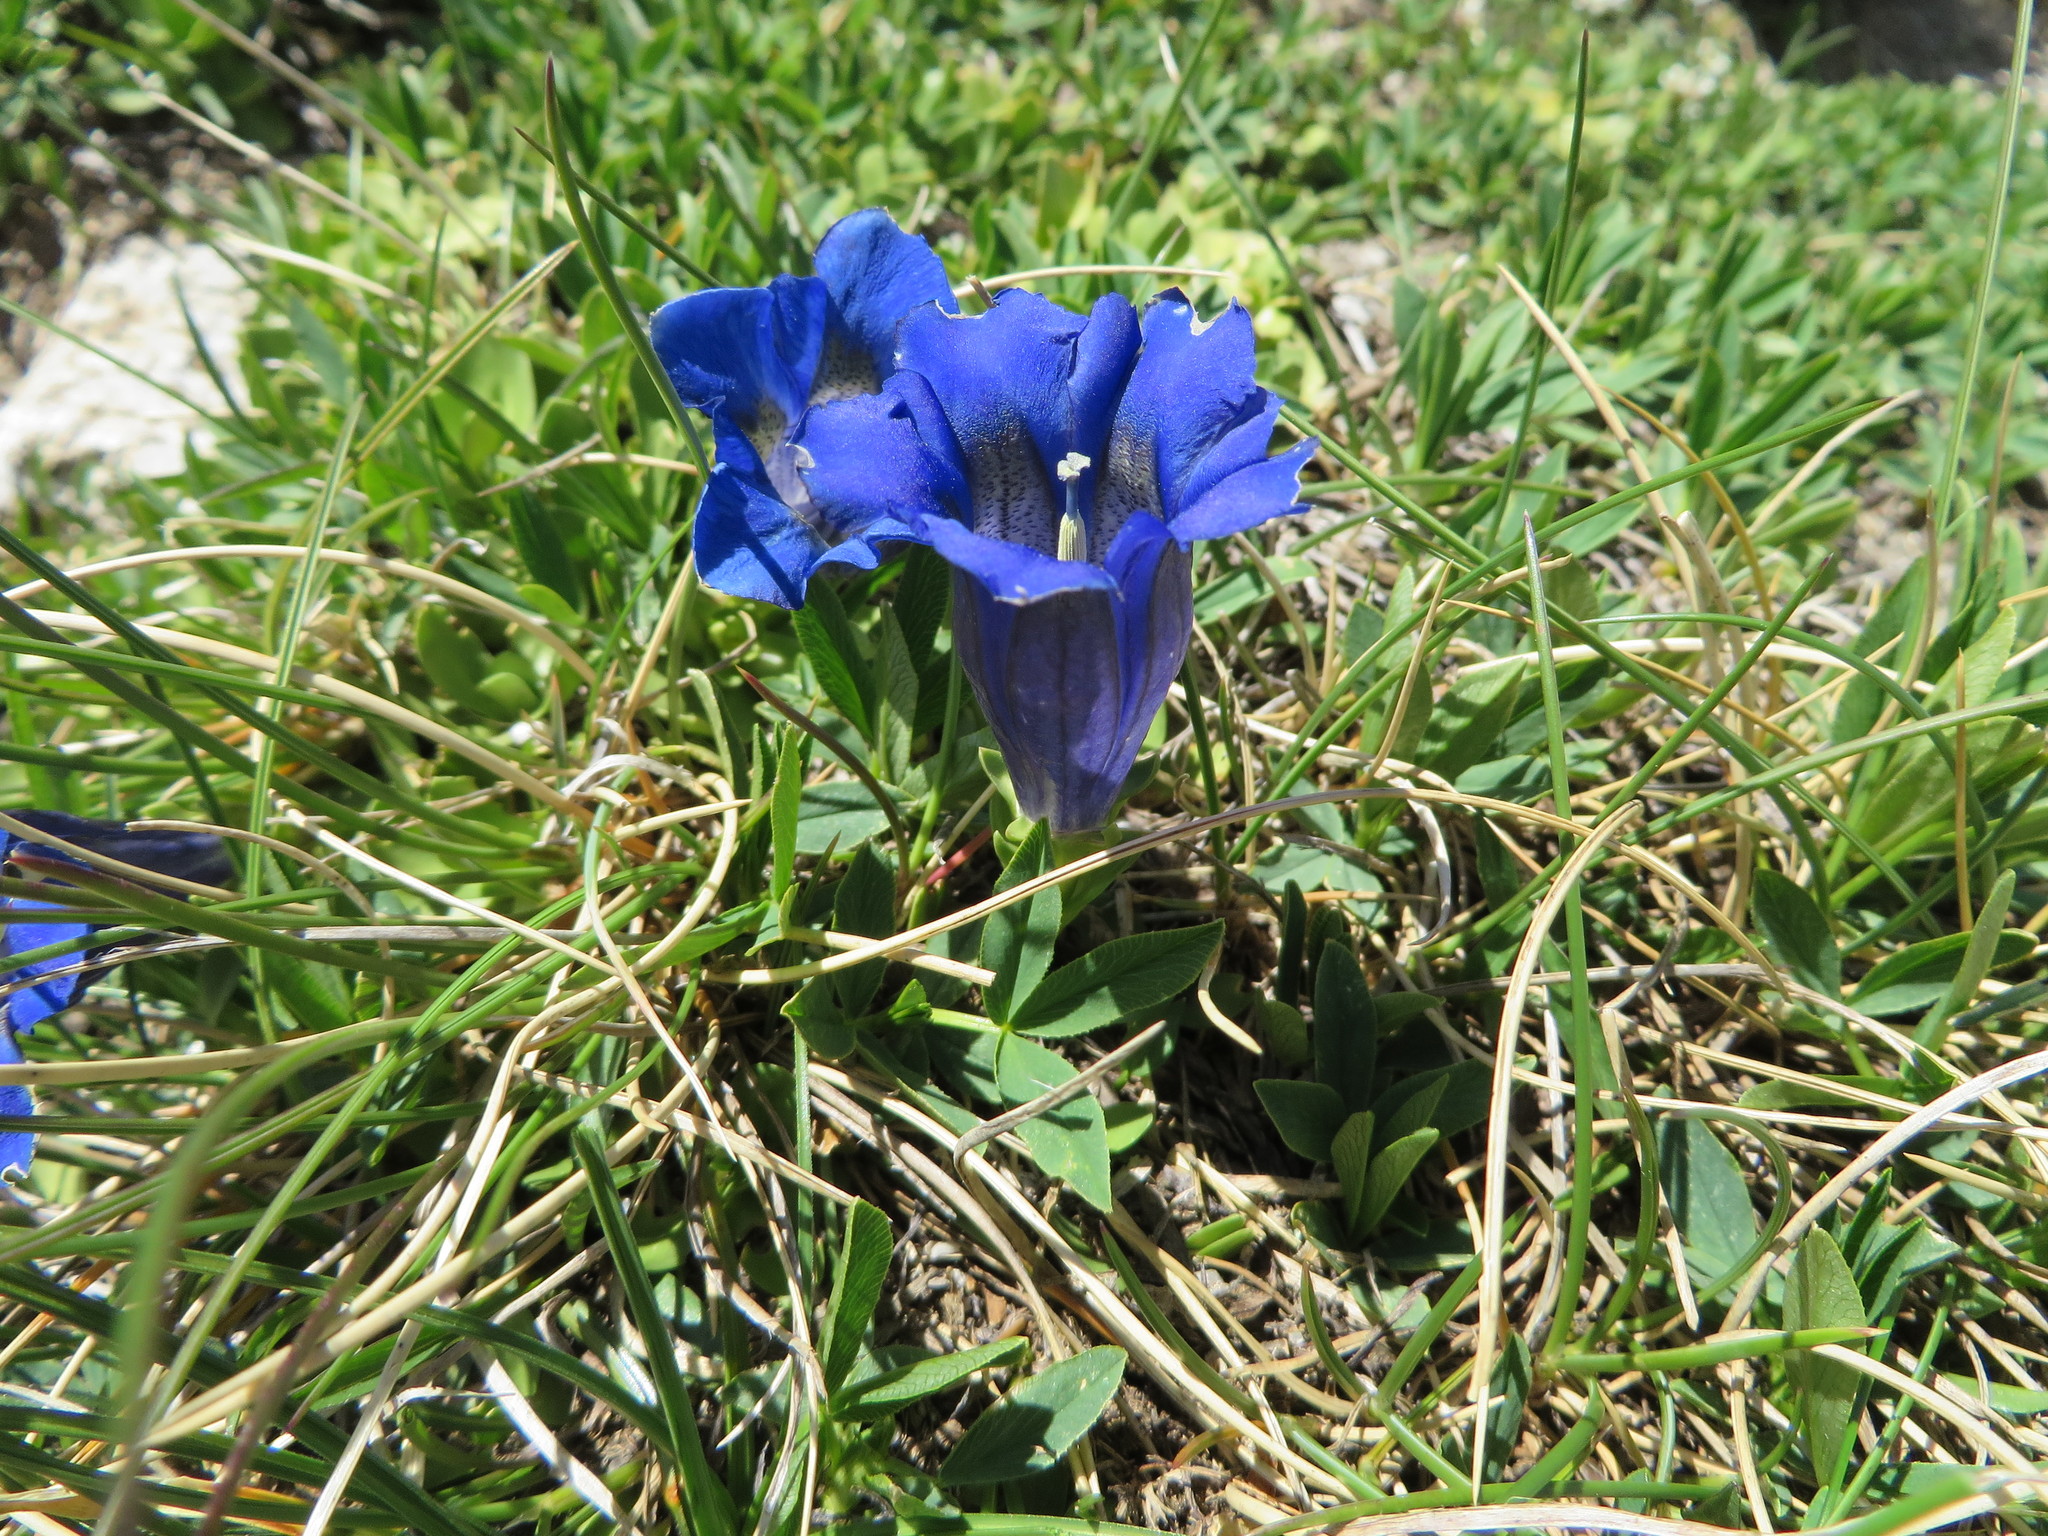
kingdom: Plantae
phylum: Tracheophyta
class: Magnoliopsida
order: Gentianales
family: Gentianaceae
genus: Gentiana
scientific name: Gentiana acaulis
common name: Trumpet gentian
